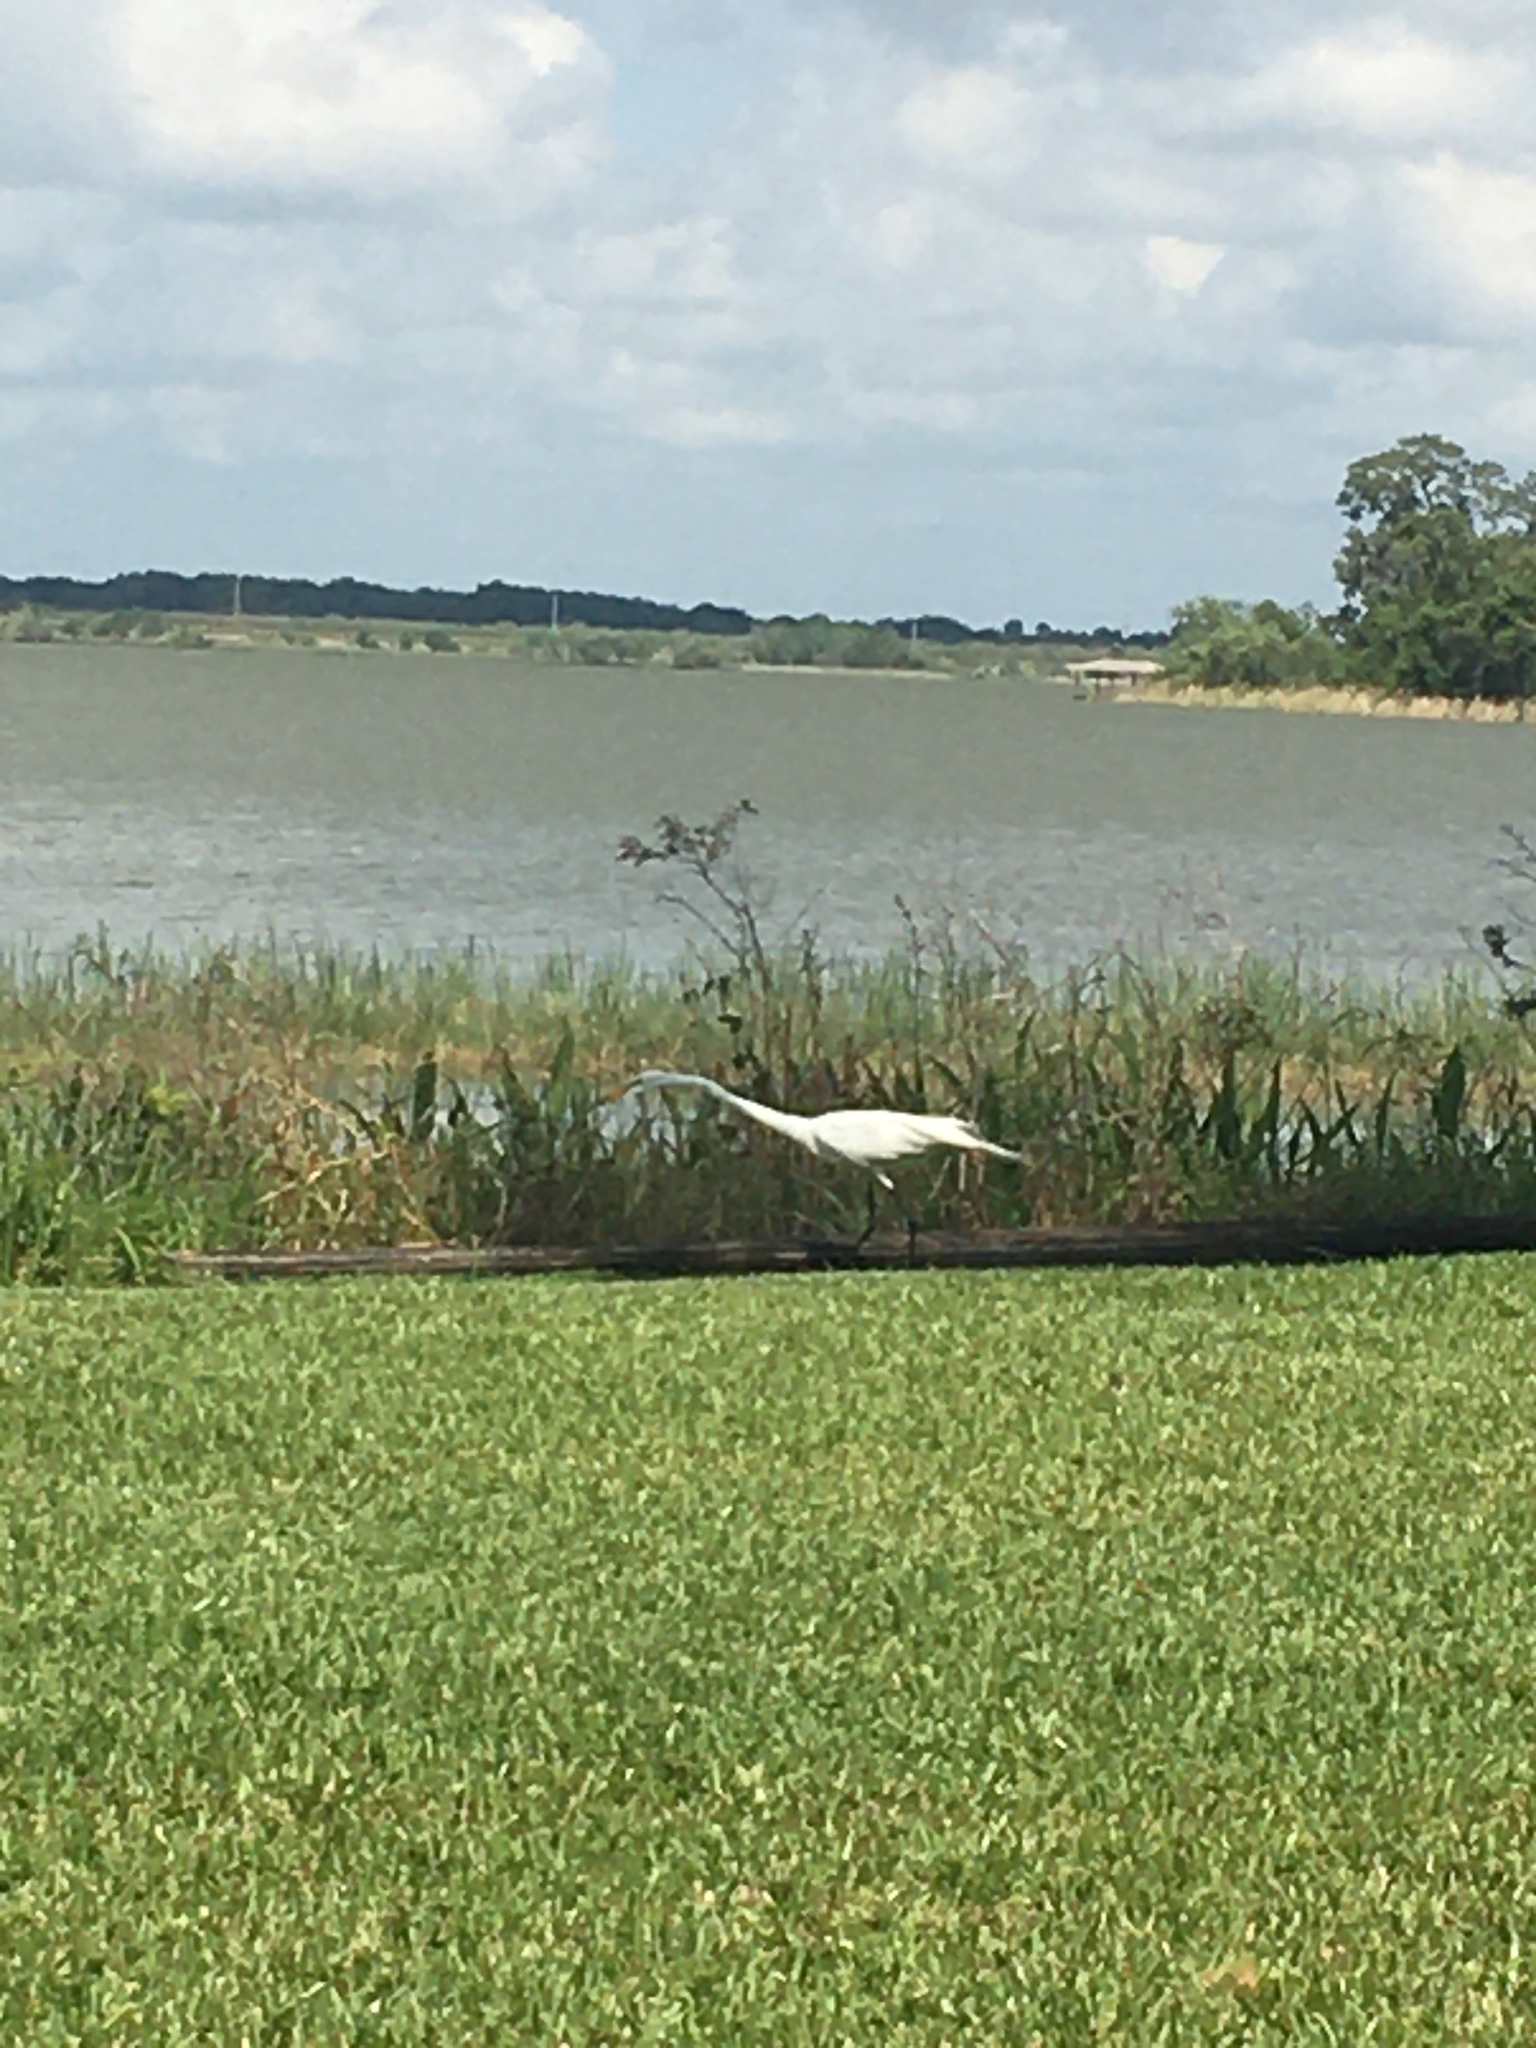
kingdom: Animalia
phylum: Chordata
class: Aves
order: Pelecaniformes
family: Ardeidae
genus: Ardea
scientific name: Ardea alba
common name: Great egret
